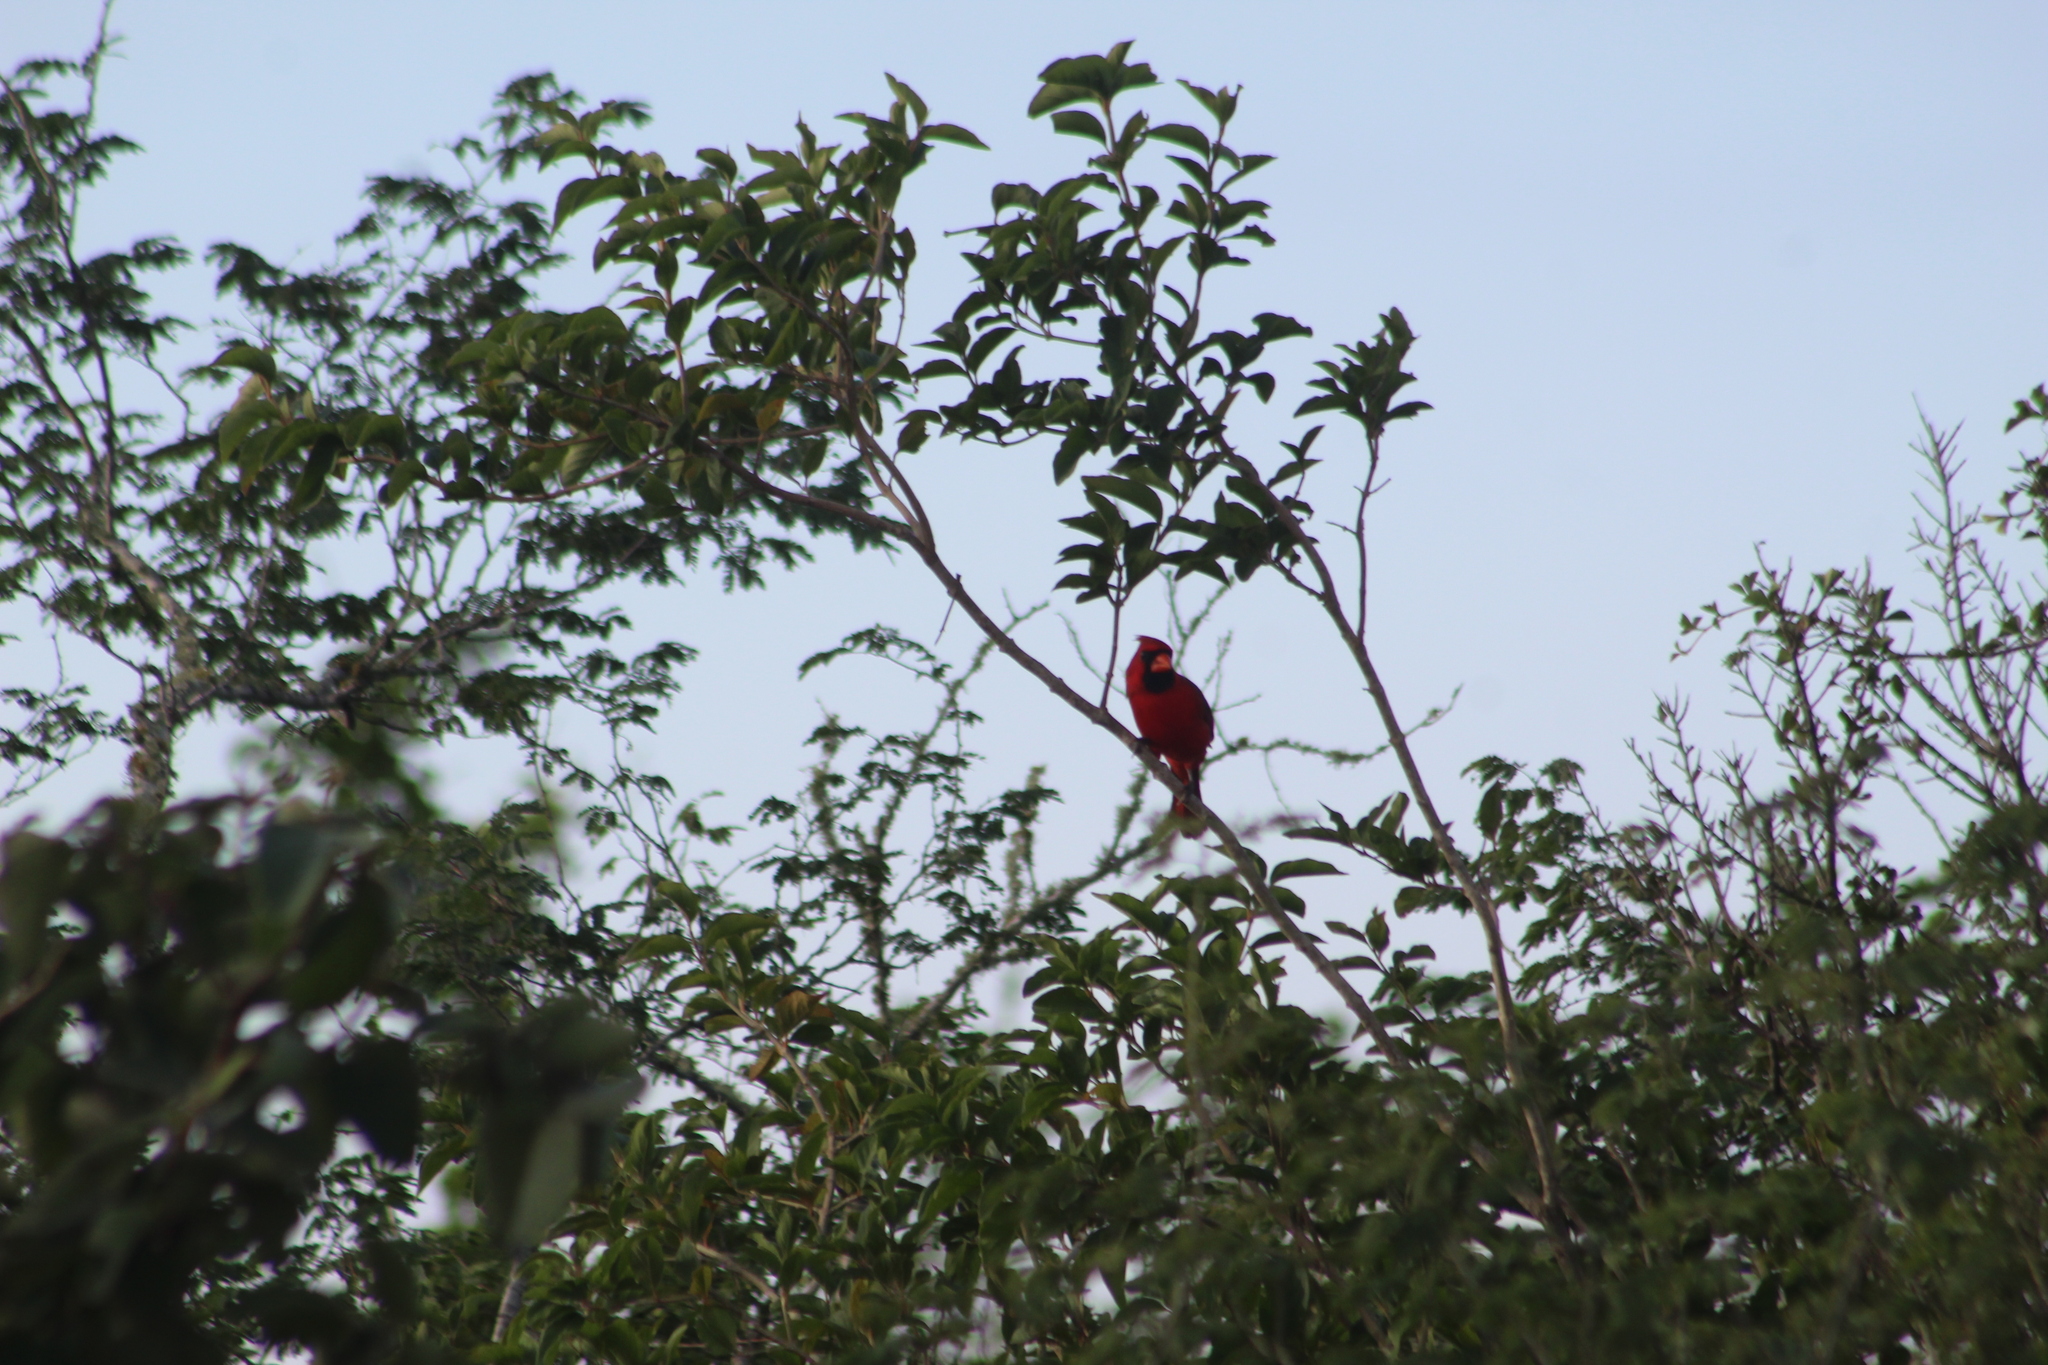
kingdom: Animalia
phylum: Chordata
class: Aves
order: Passeriformes
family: Cardinalidae
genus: Cardinalis
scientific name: Cardinalis cardinalis
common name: Northern cardinal
